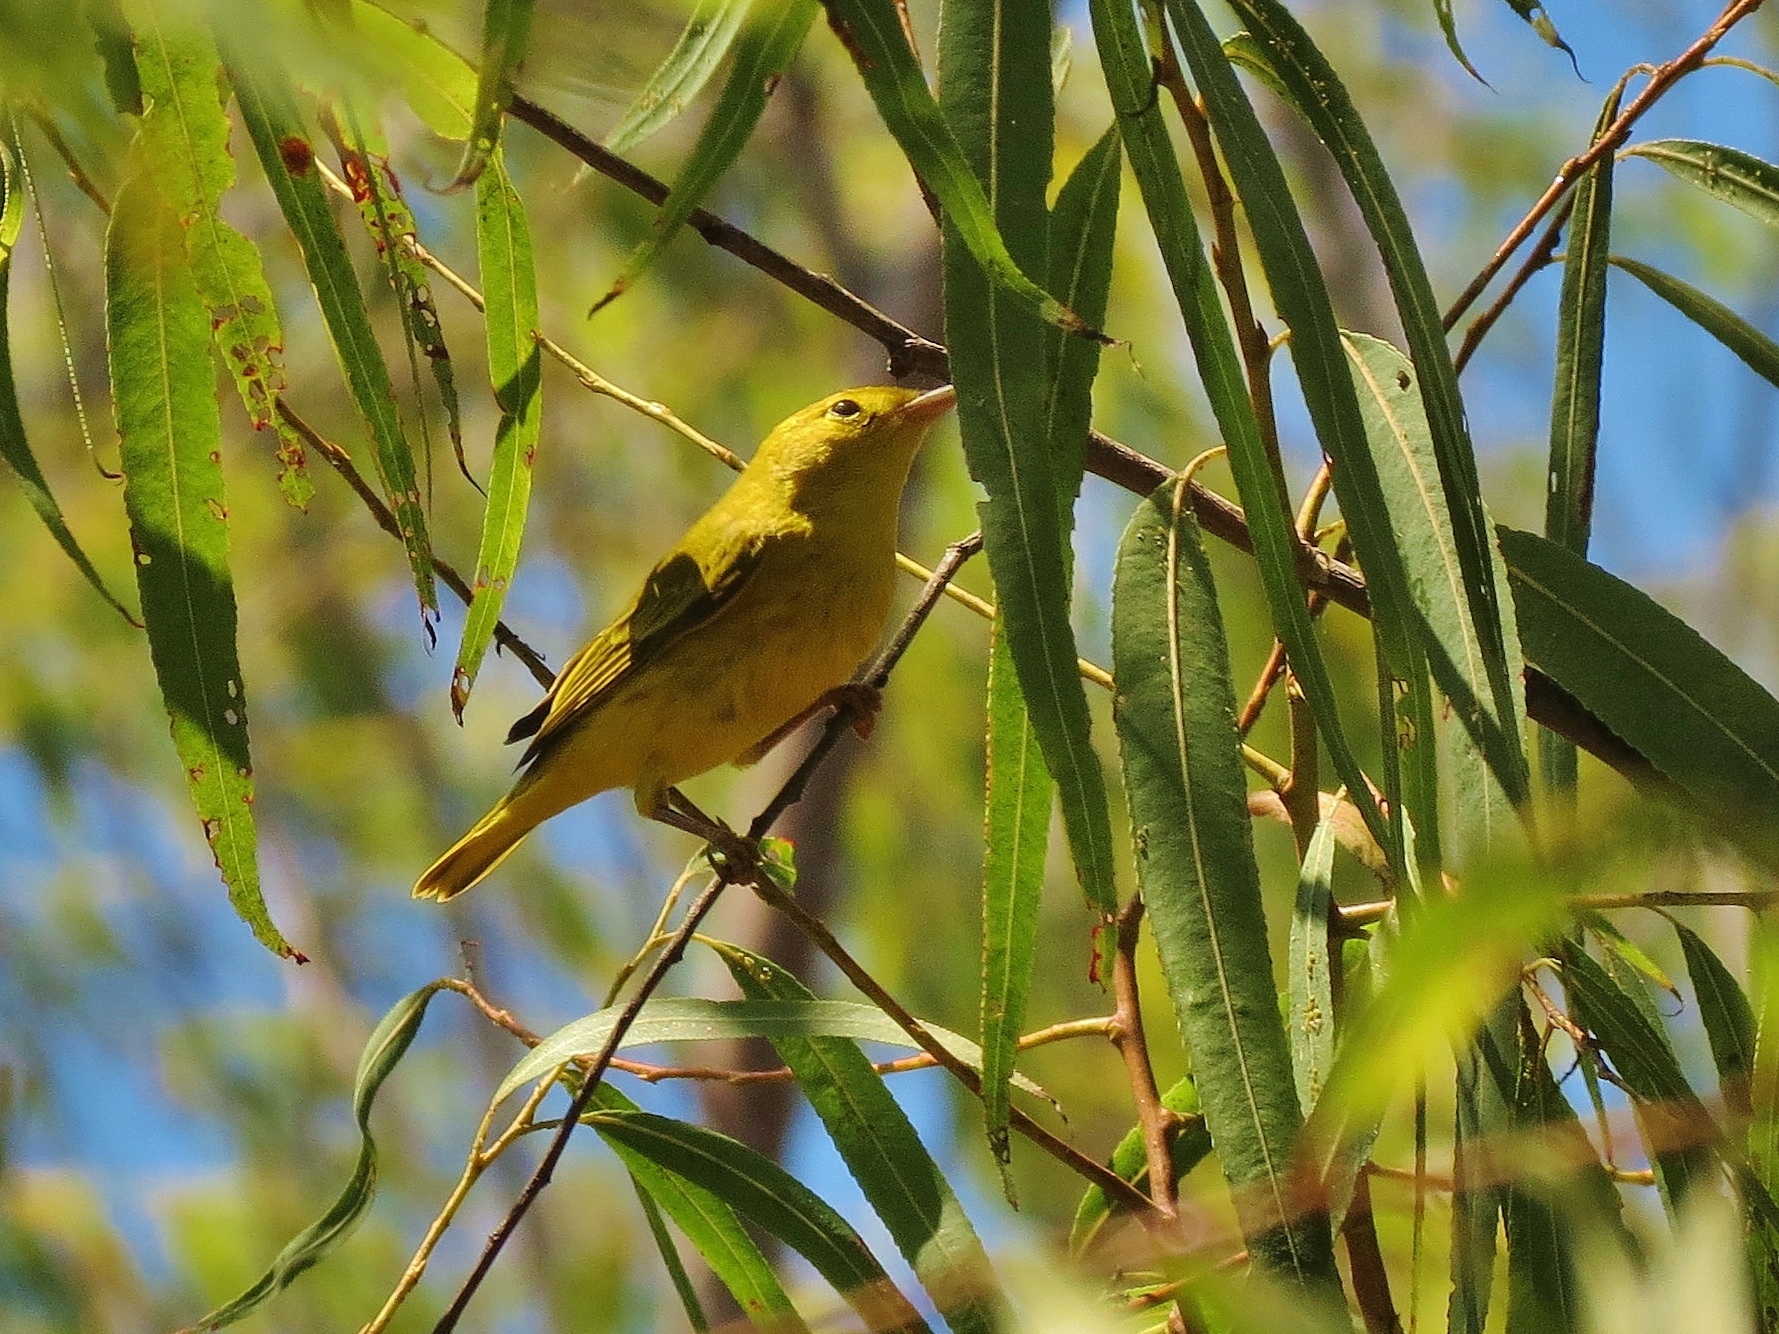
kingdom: Animalia
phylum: Chordata
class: Aves
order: Passeriformes
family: Parulidae
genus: Setophaga
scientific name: Setophaga petechia
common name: Yellow warbler
